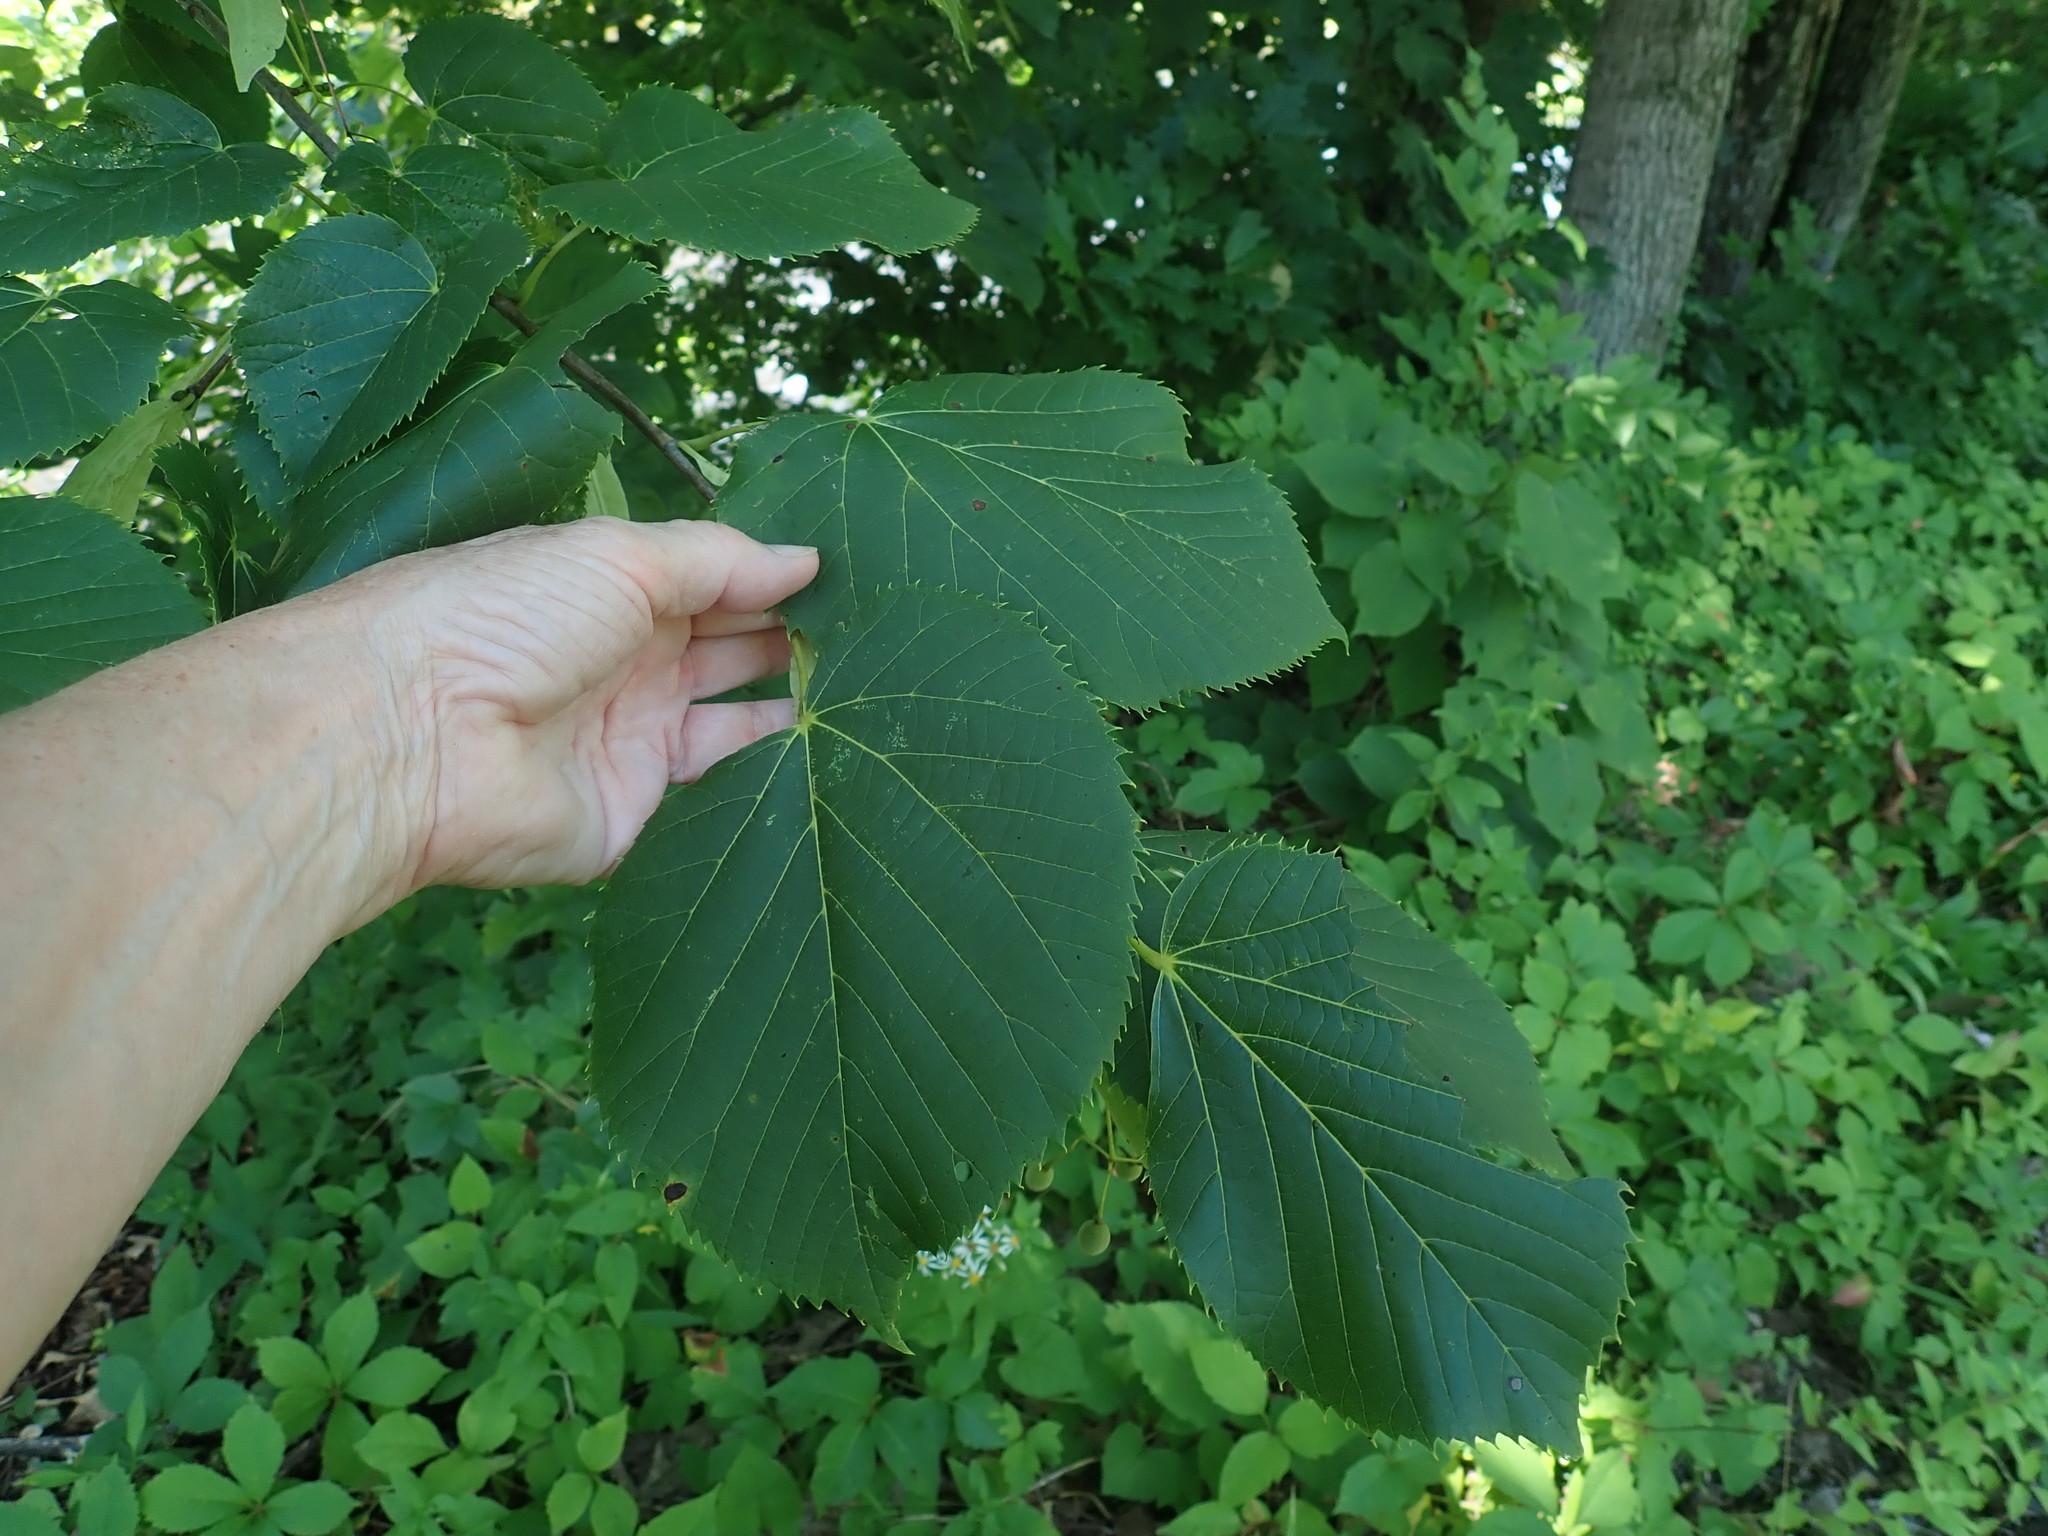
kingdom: Plantae
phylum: Tracheophyta
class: Magnoliopsida
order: Malvales
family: Malvaceae
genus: Tilia
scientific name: Tilia americana
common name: Basswood
